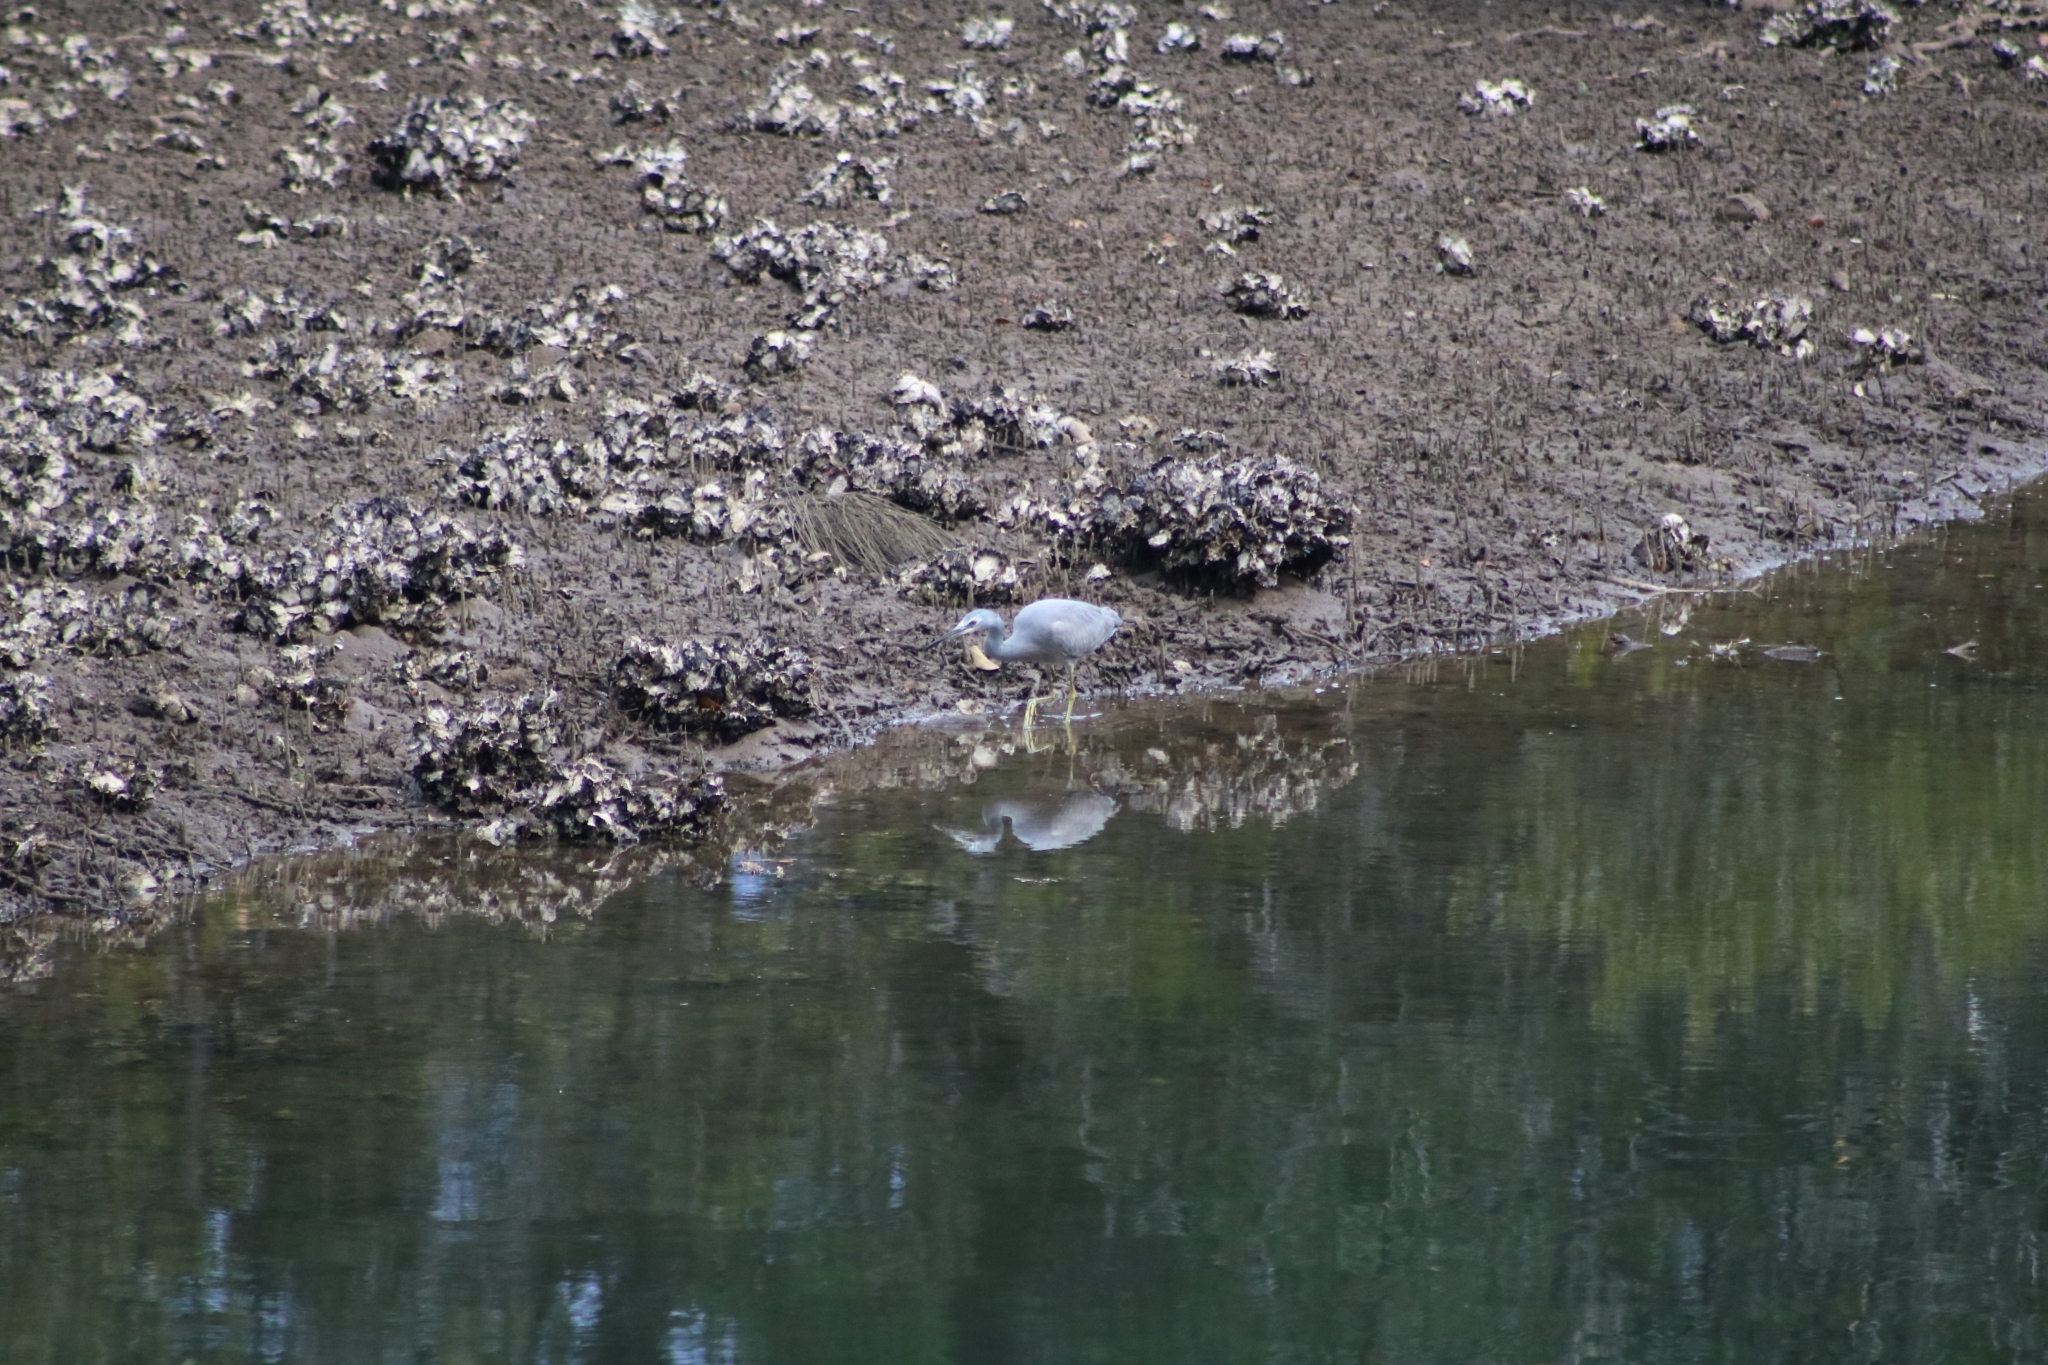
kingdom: Animalia
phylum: Chordata
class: Aves
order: Pelecaniformes
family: Ardeidae
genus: Egretta
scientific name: Egretta novaehollandiae
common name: White-faced heron
